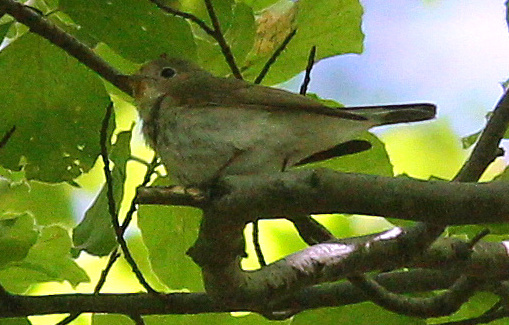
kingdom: Animalia
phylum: Chordata
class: Aves
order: Passeriformes
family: Muscicapidae
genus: Ficedula
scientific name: Ficedula parva
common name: Red-breasted flycatcher
